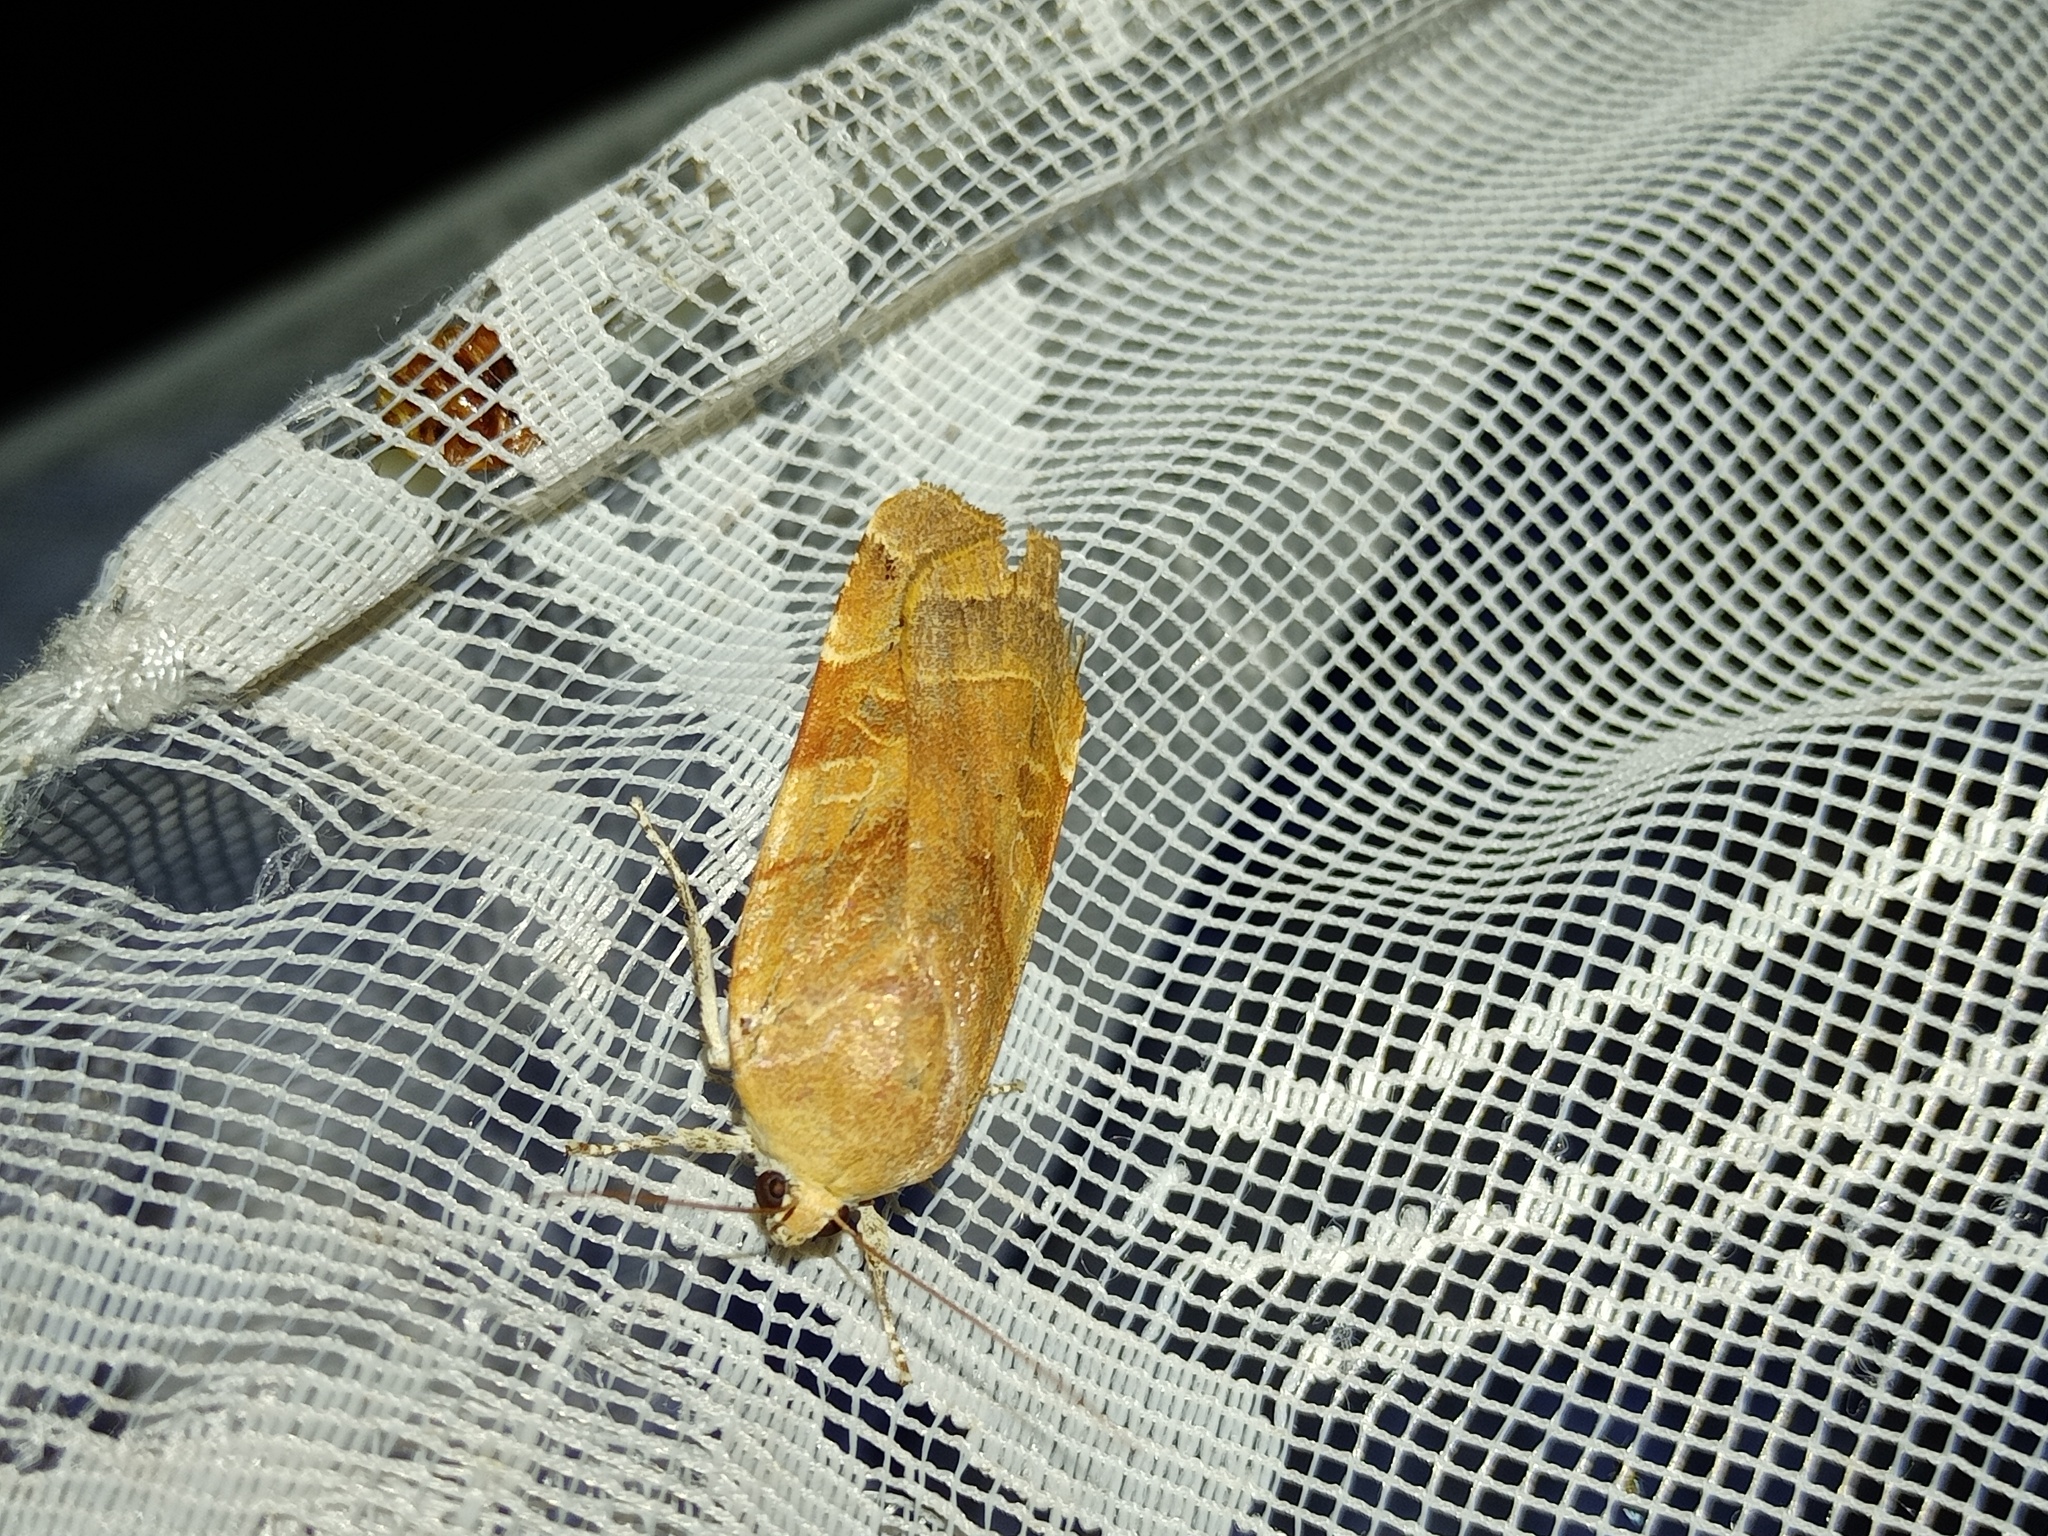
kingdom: Animalia
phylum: Arthropoda
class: Insecta
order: Lepidoptera
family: Noctuidae
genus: Noctua
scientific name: Noctua fimbriata
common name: Broad-bordered yellow underwing
